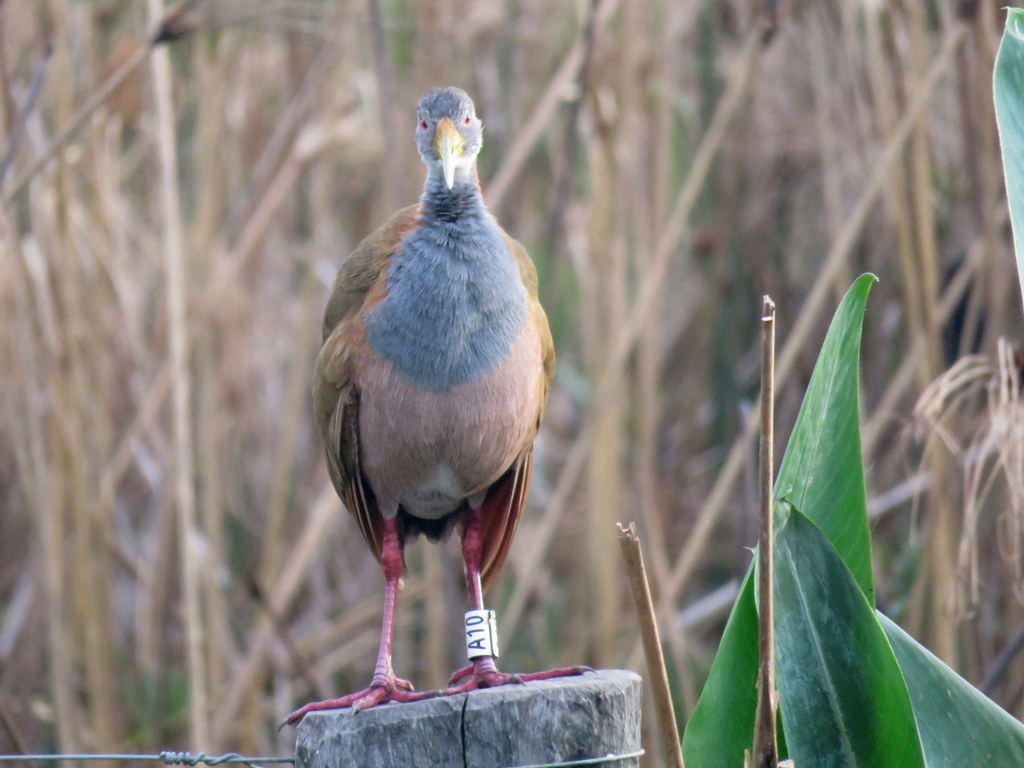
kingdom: Animalia
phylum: Chordata
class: Aves
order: Gruiformes
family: Rallidae
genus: Aramides
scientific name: Aramides ypecaha
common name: Giant wood rail
